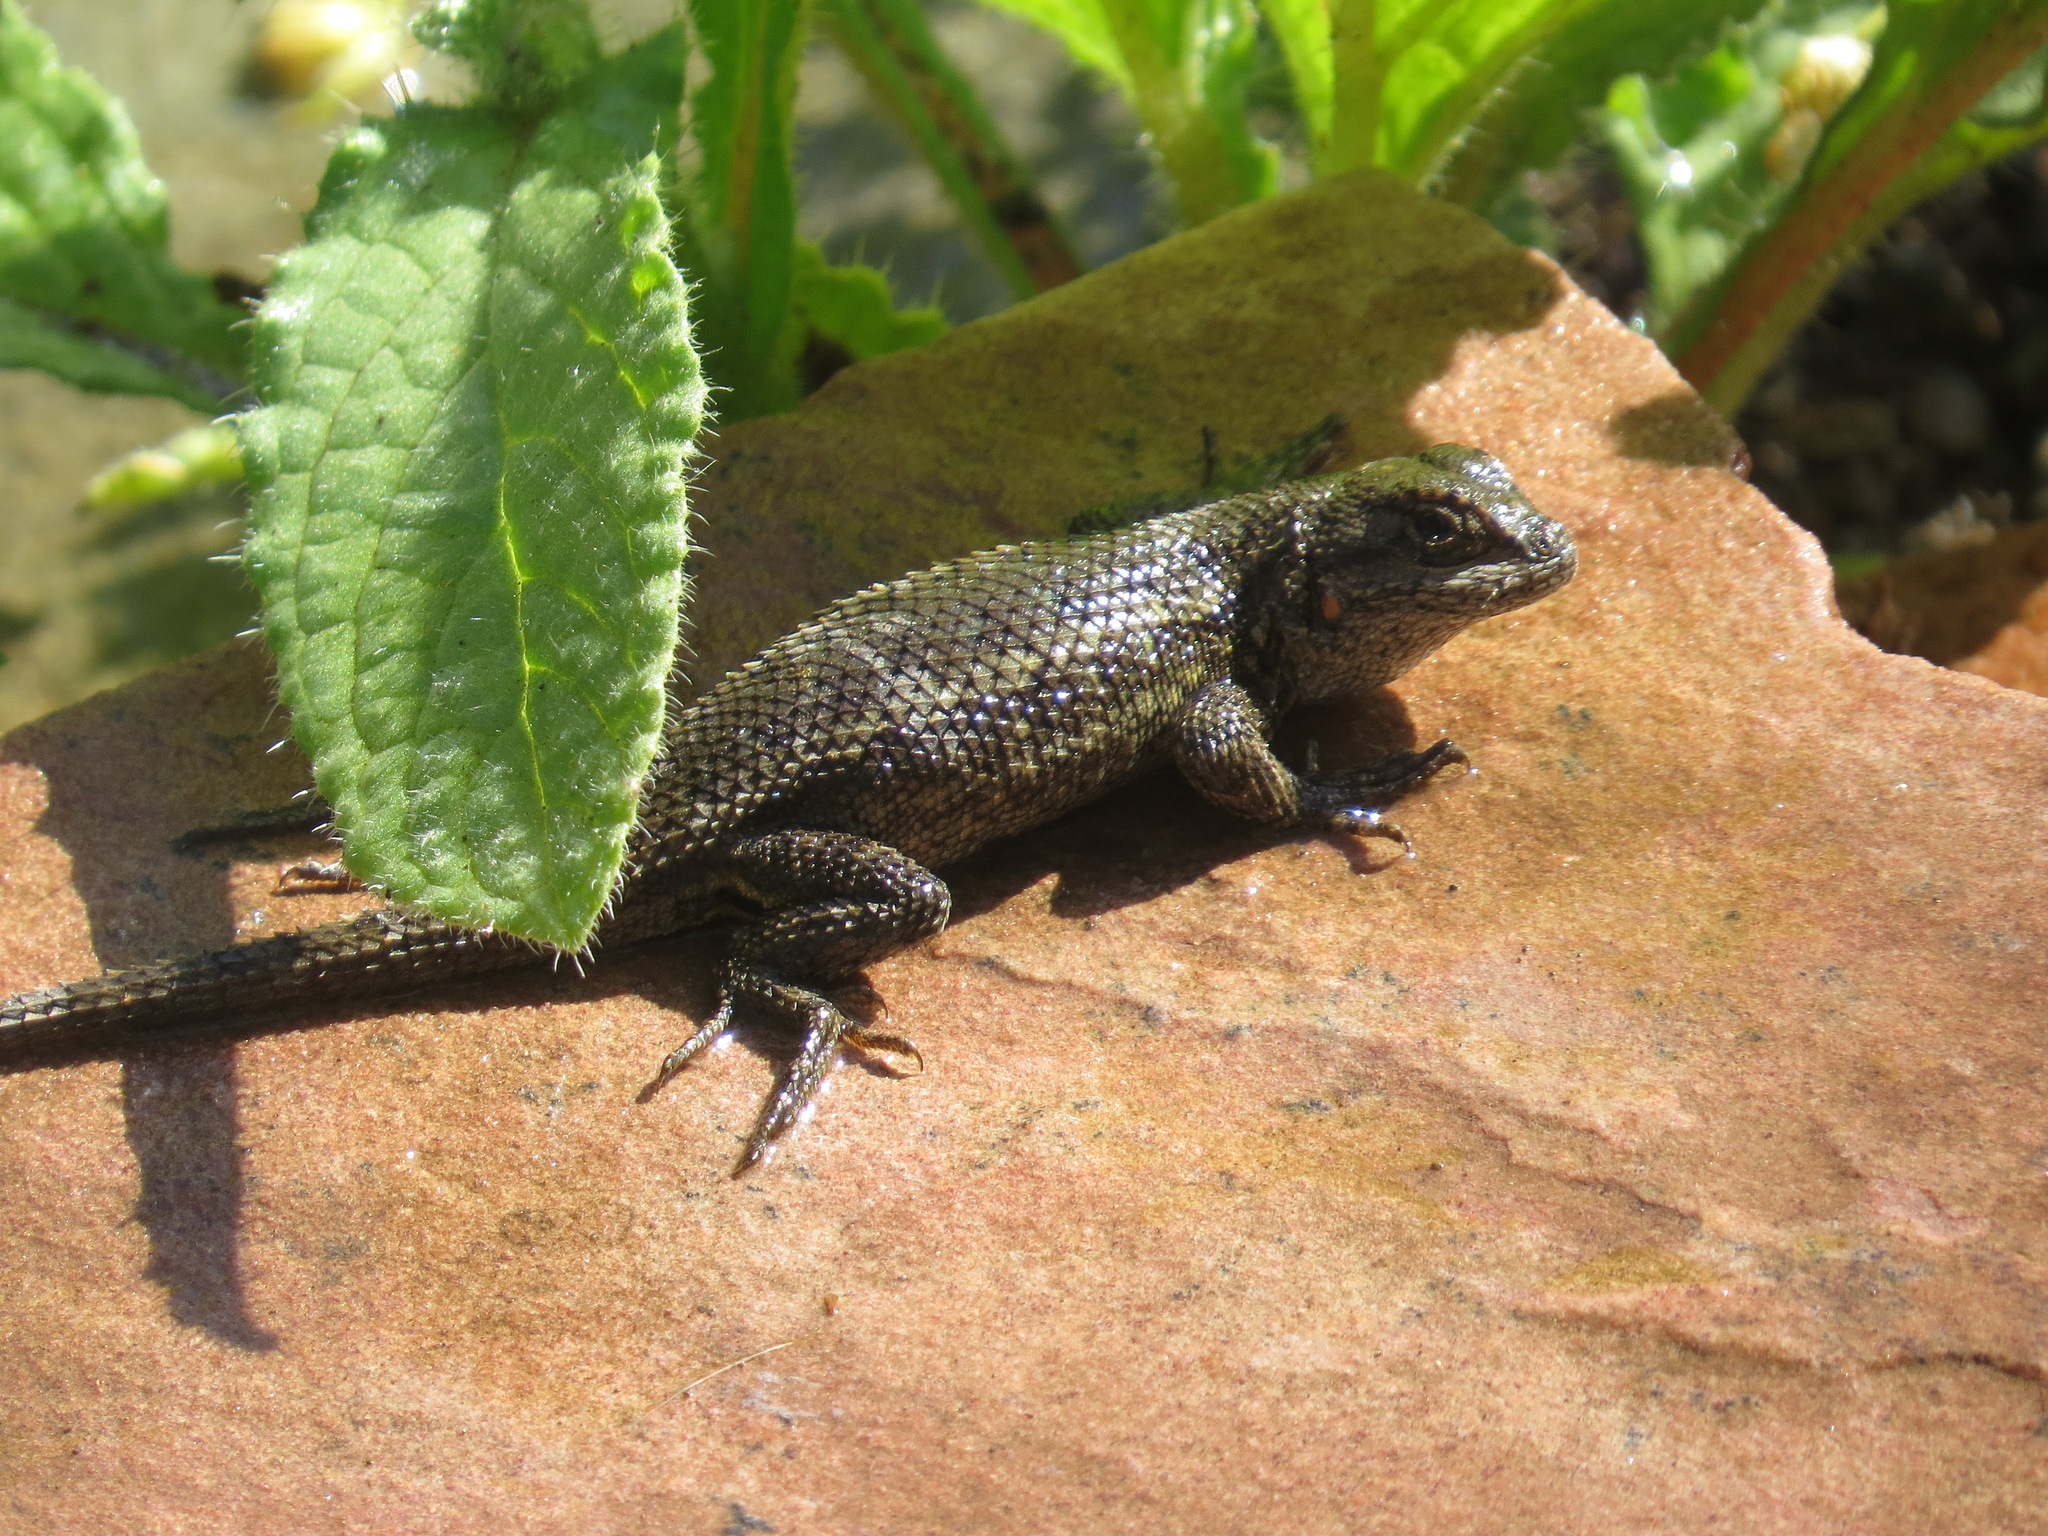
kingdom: Animalia
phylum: Chordata
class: Squamata
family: Phrynosomatidae
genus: Sceloporus
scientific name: Sceloporus occidentalis
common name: Western fence lizard
